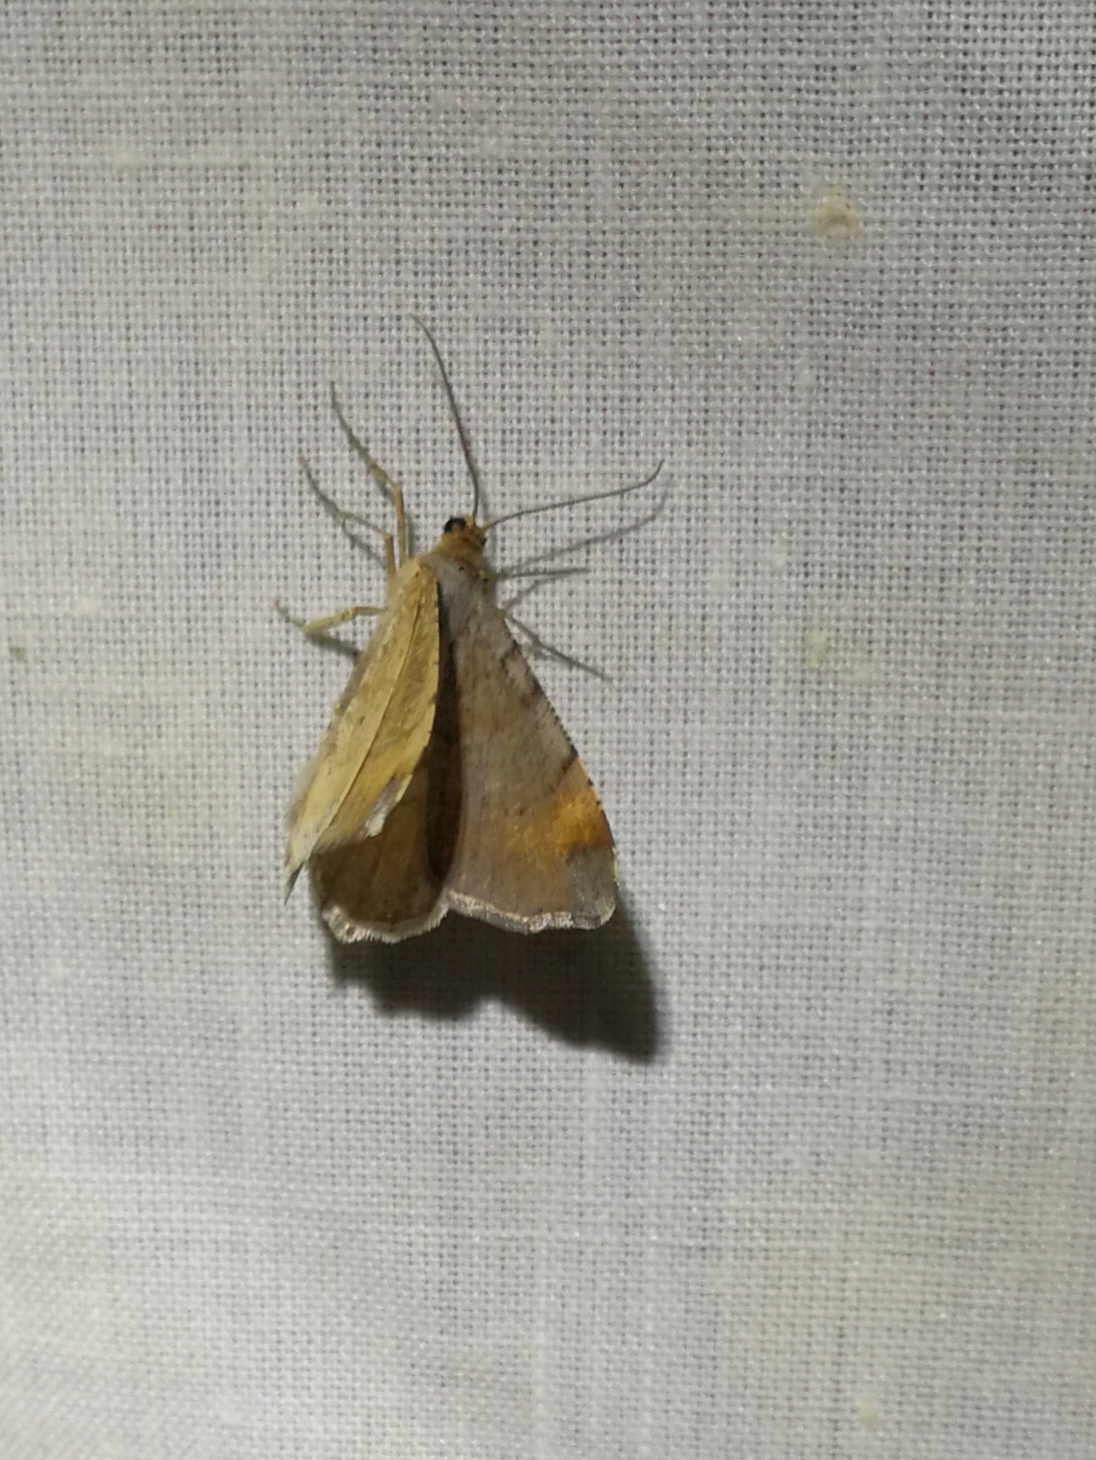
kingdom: Animalia
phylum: Arthropoda
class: Insecta
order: Lepidoptera
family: Geometridae
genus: Macaria
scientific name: Macaria liturata
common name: Tawny-barred angle
